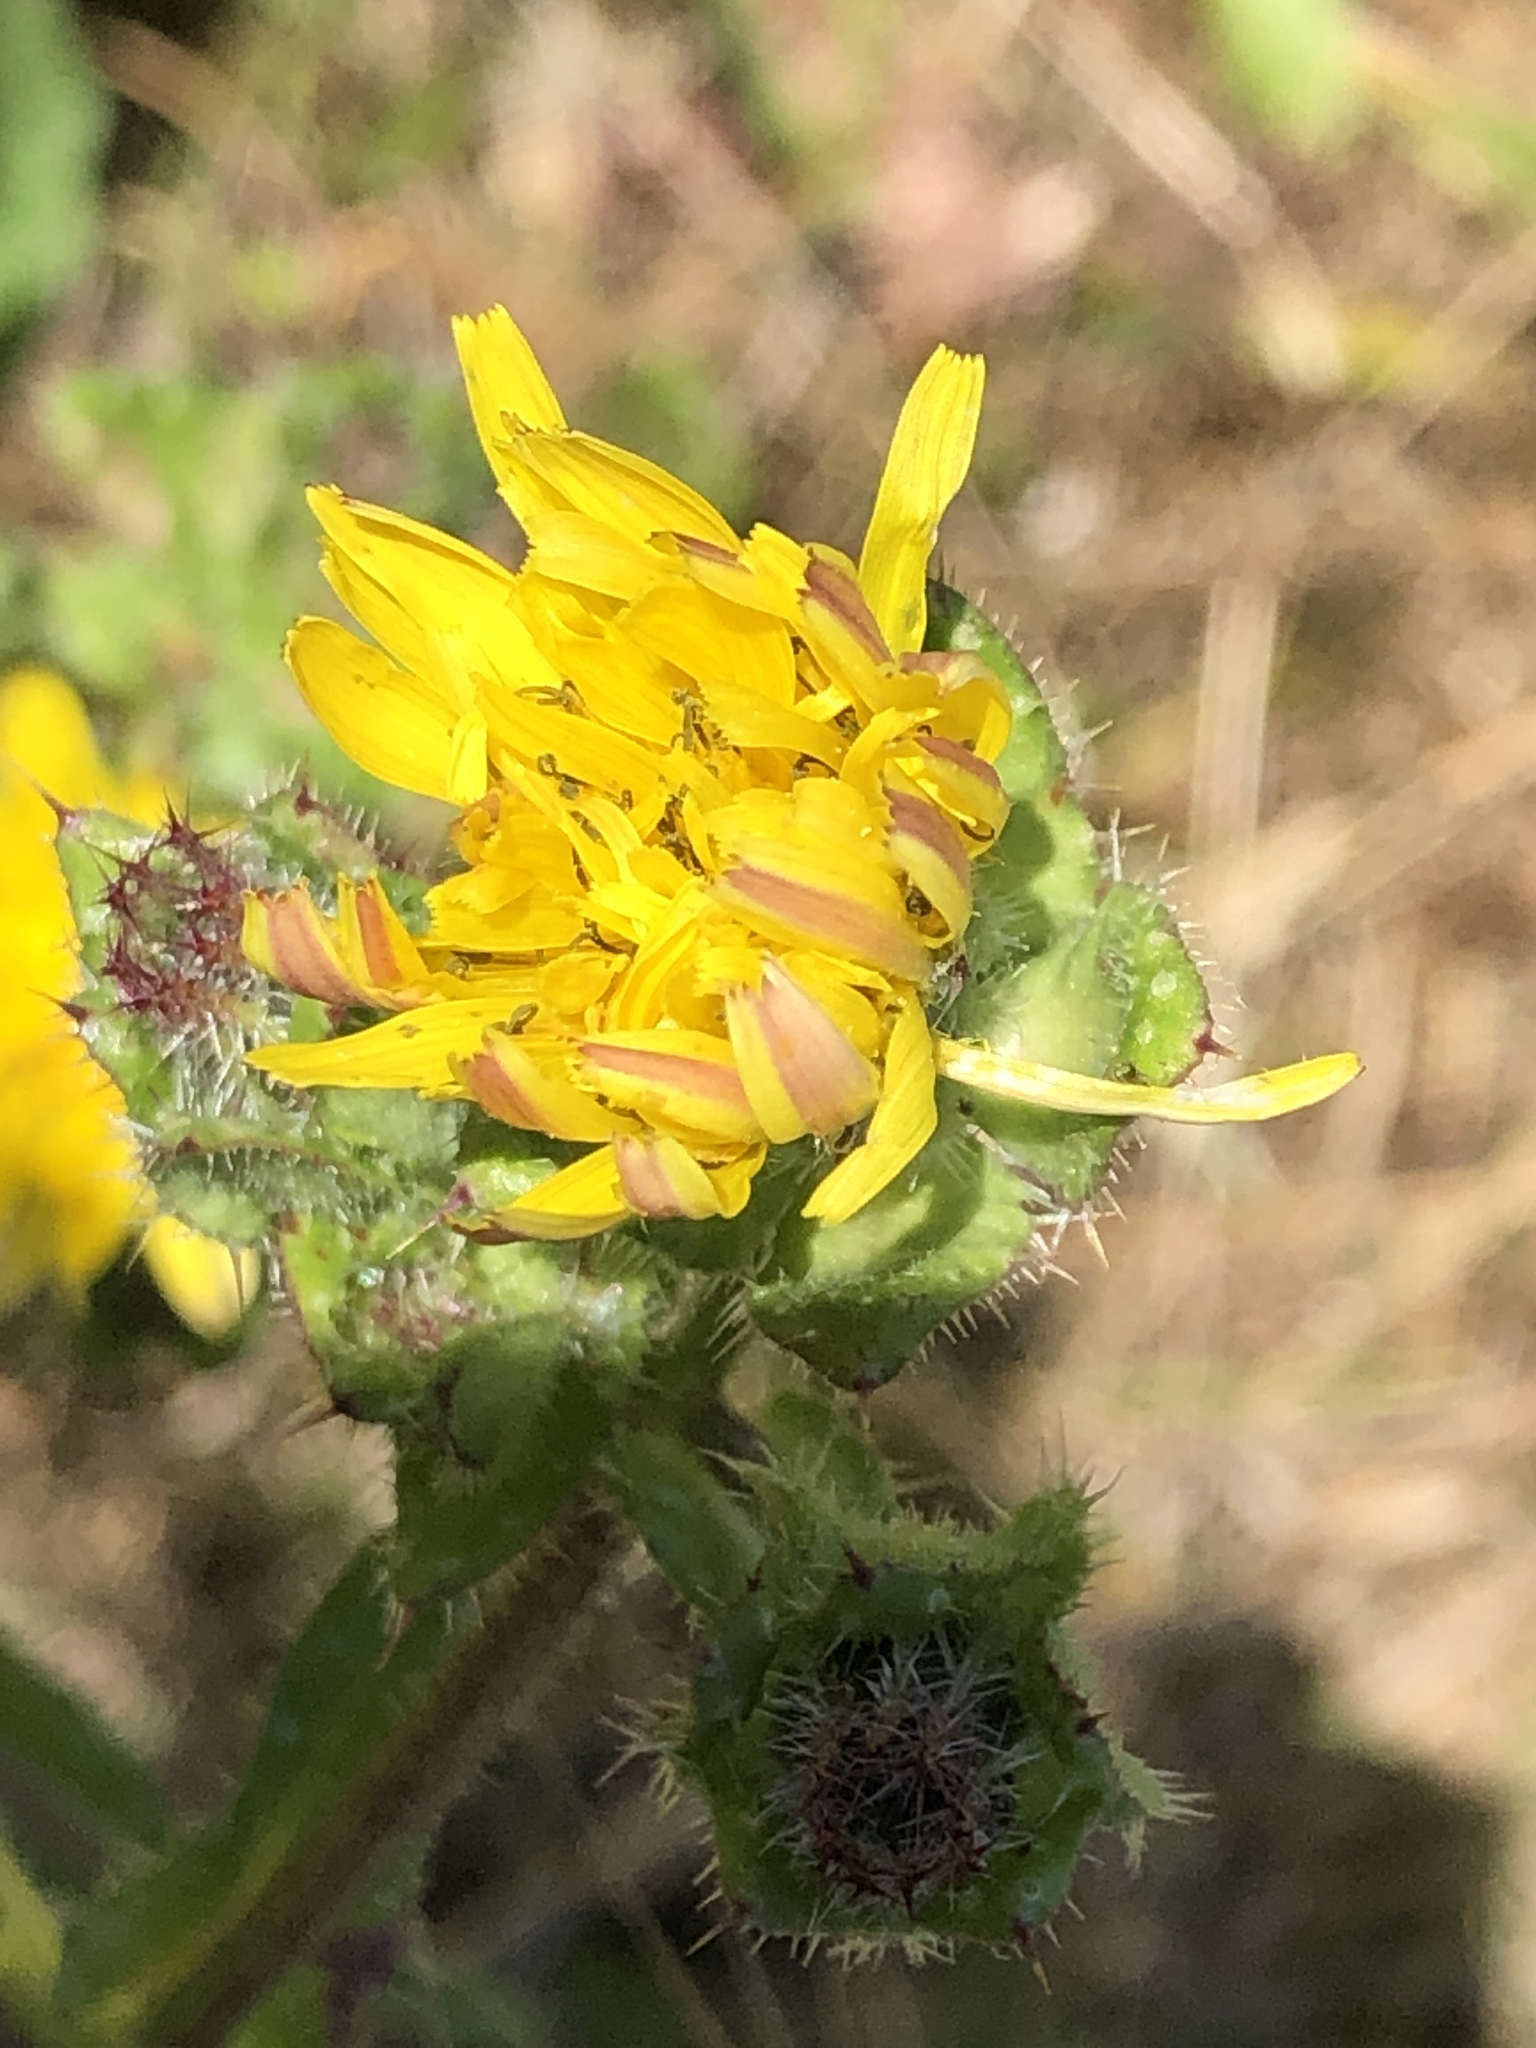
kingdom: Plantae
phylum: Tracheophyta
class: Magnoliopsida
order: Asterales
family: Asteraceae
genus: Helminthotheca
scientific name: Helminthotheca echioides
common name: Ox-tongue
